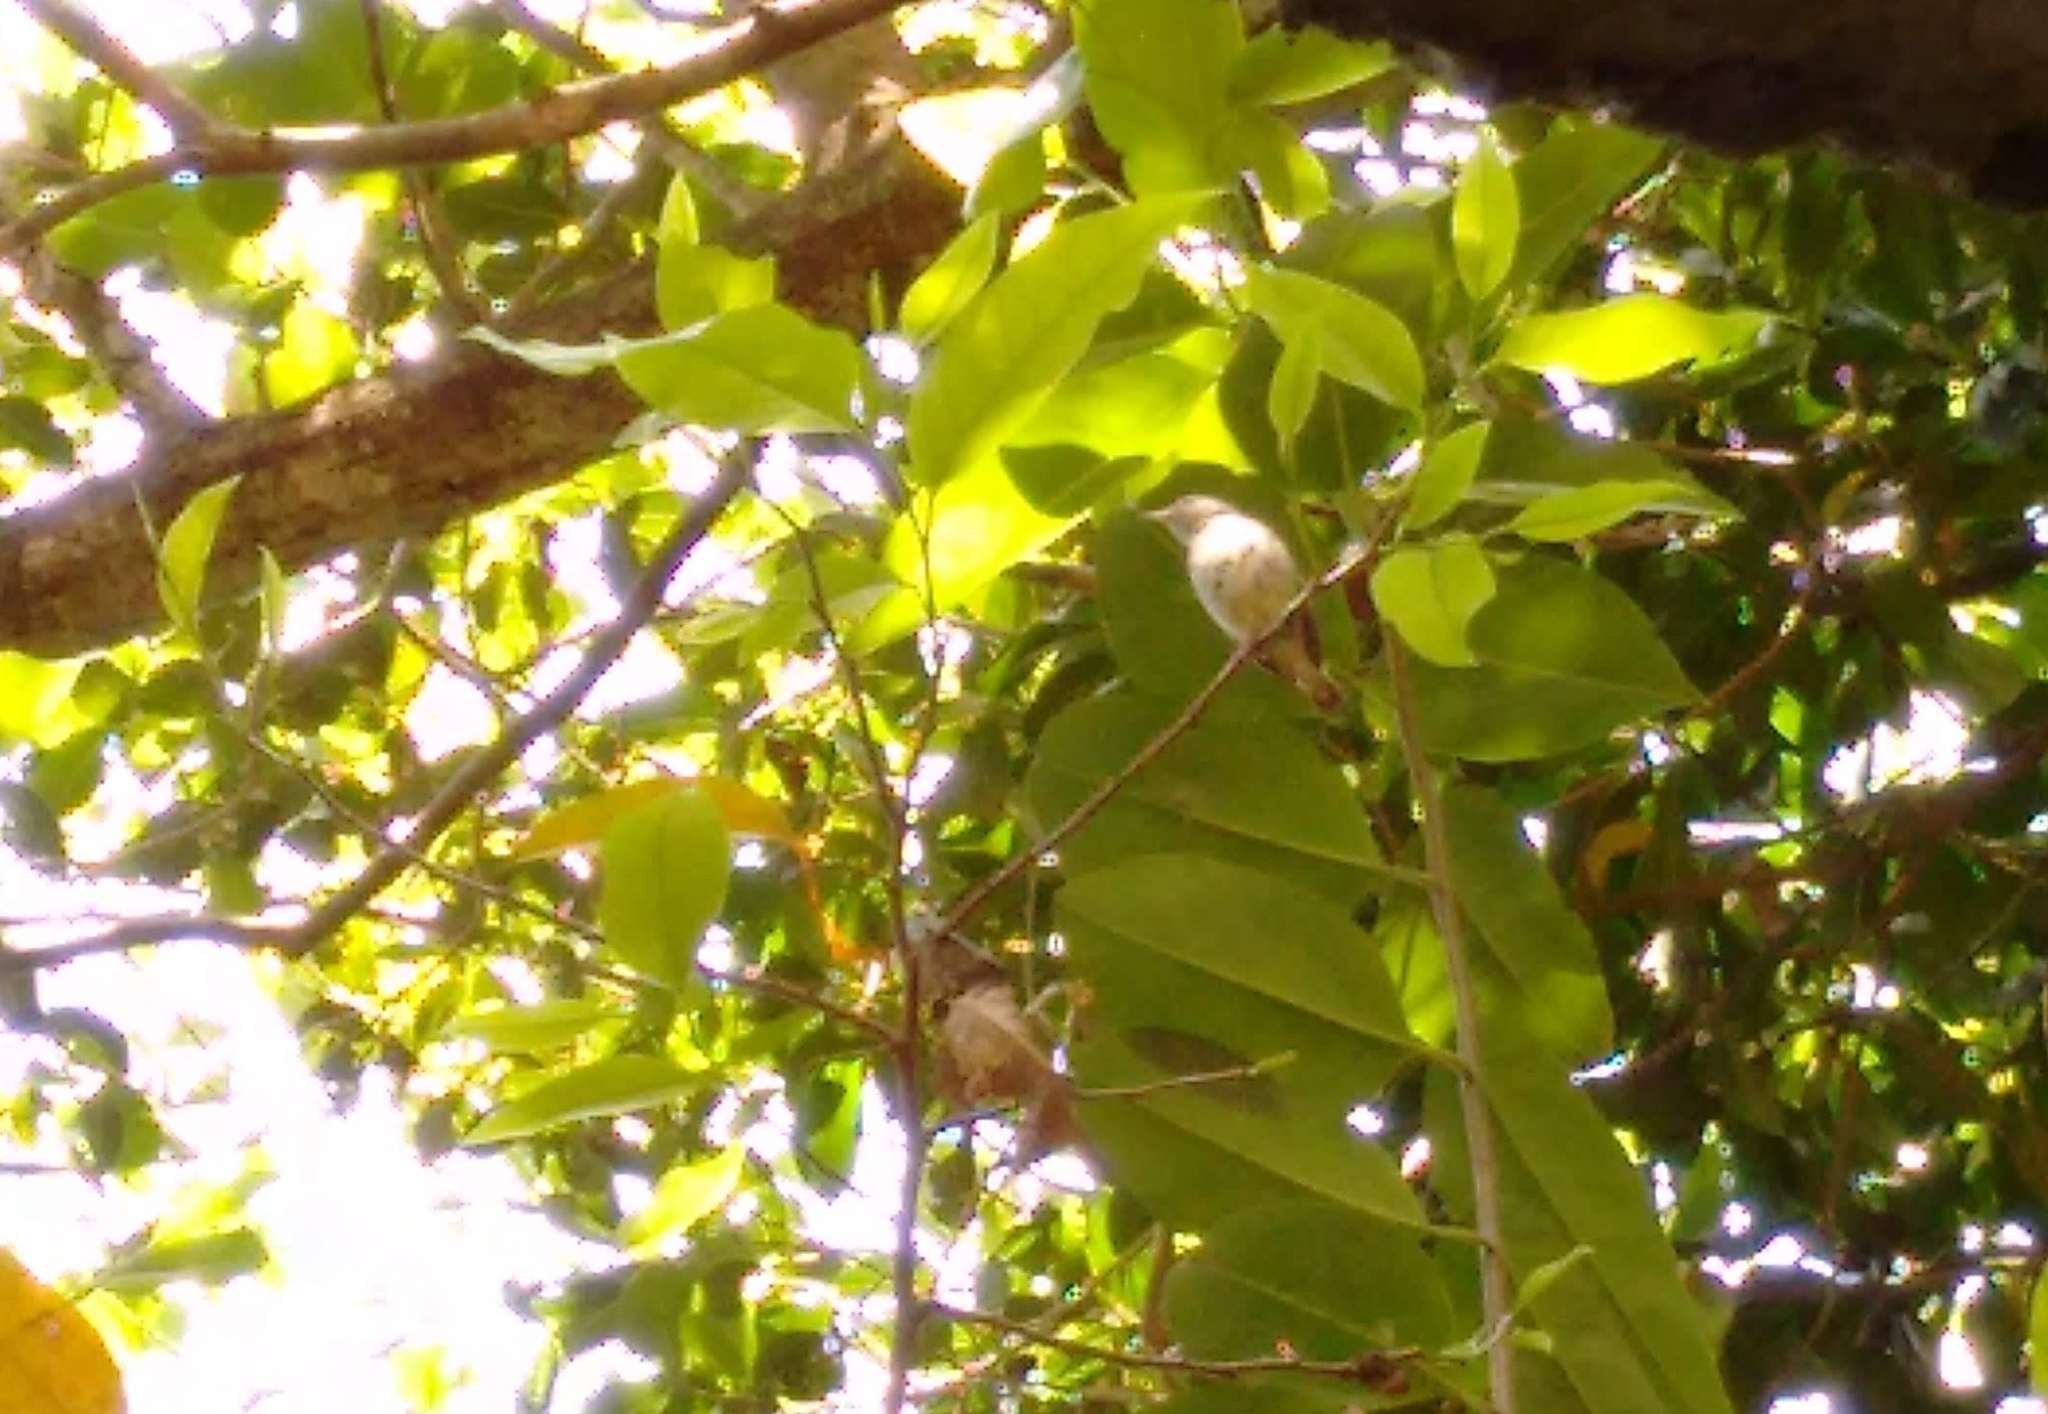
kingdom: Animalia
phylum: Chordata
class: Aves
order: Passeriformes
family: Muscicapidae
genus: Muscicapa
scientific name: Muscicapa latirostris
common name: Asian brown flycatcher
